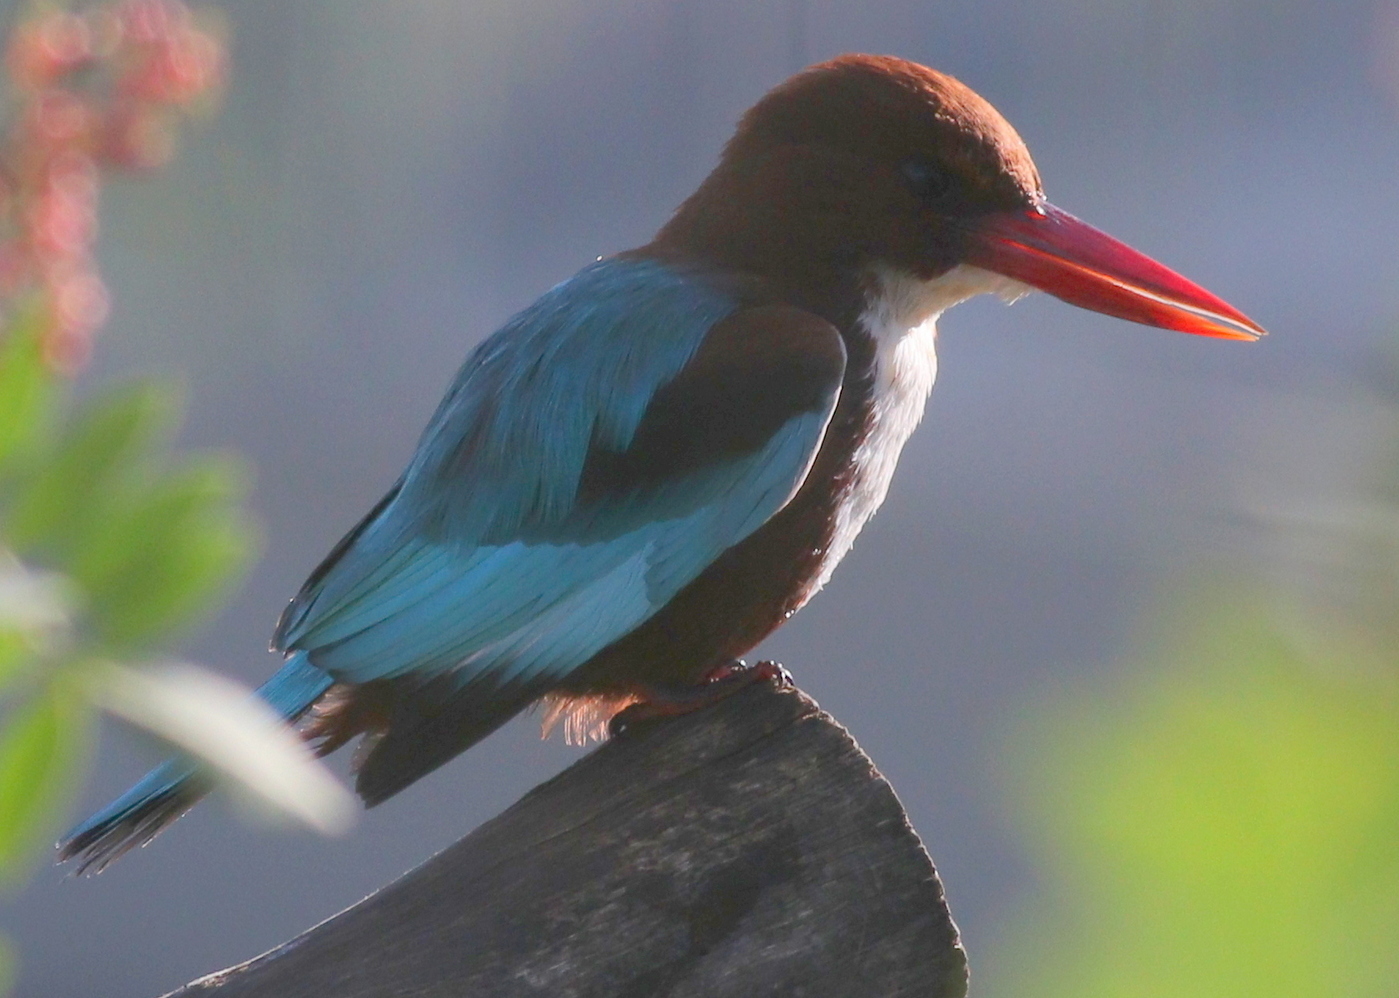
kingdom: Animalia
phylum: Chordata
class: Aves
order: Coraciiformes
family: Alcedinidae
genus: Halcyon
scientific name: Halcyon smyrnensis
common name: White-throated kingfisher
